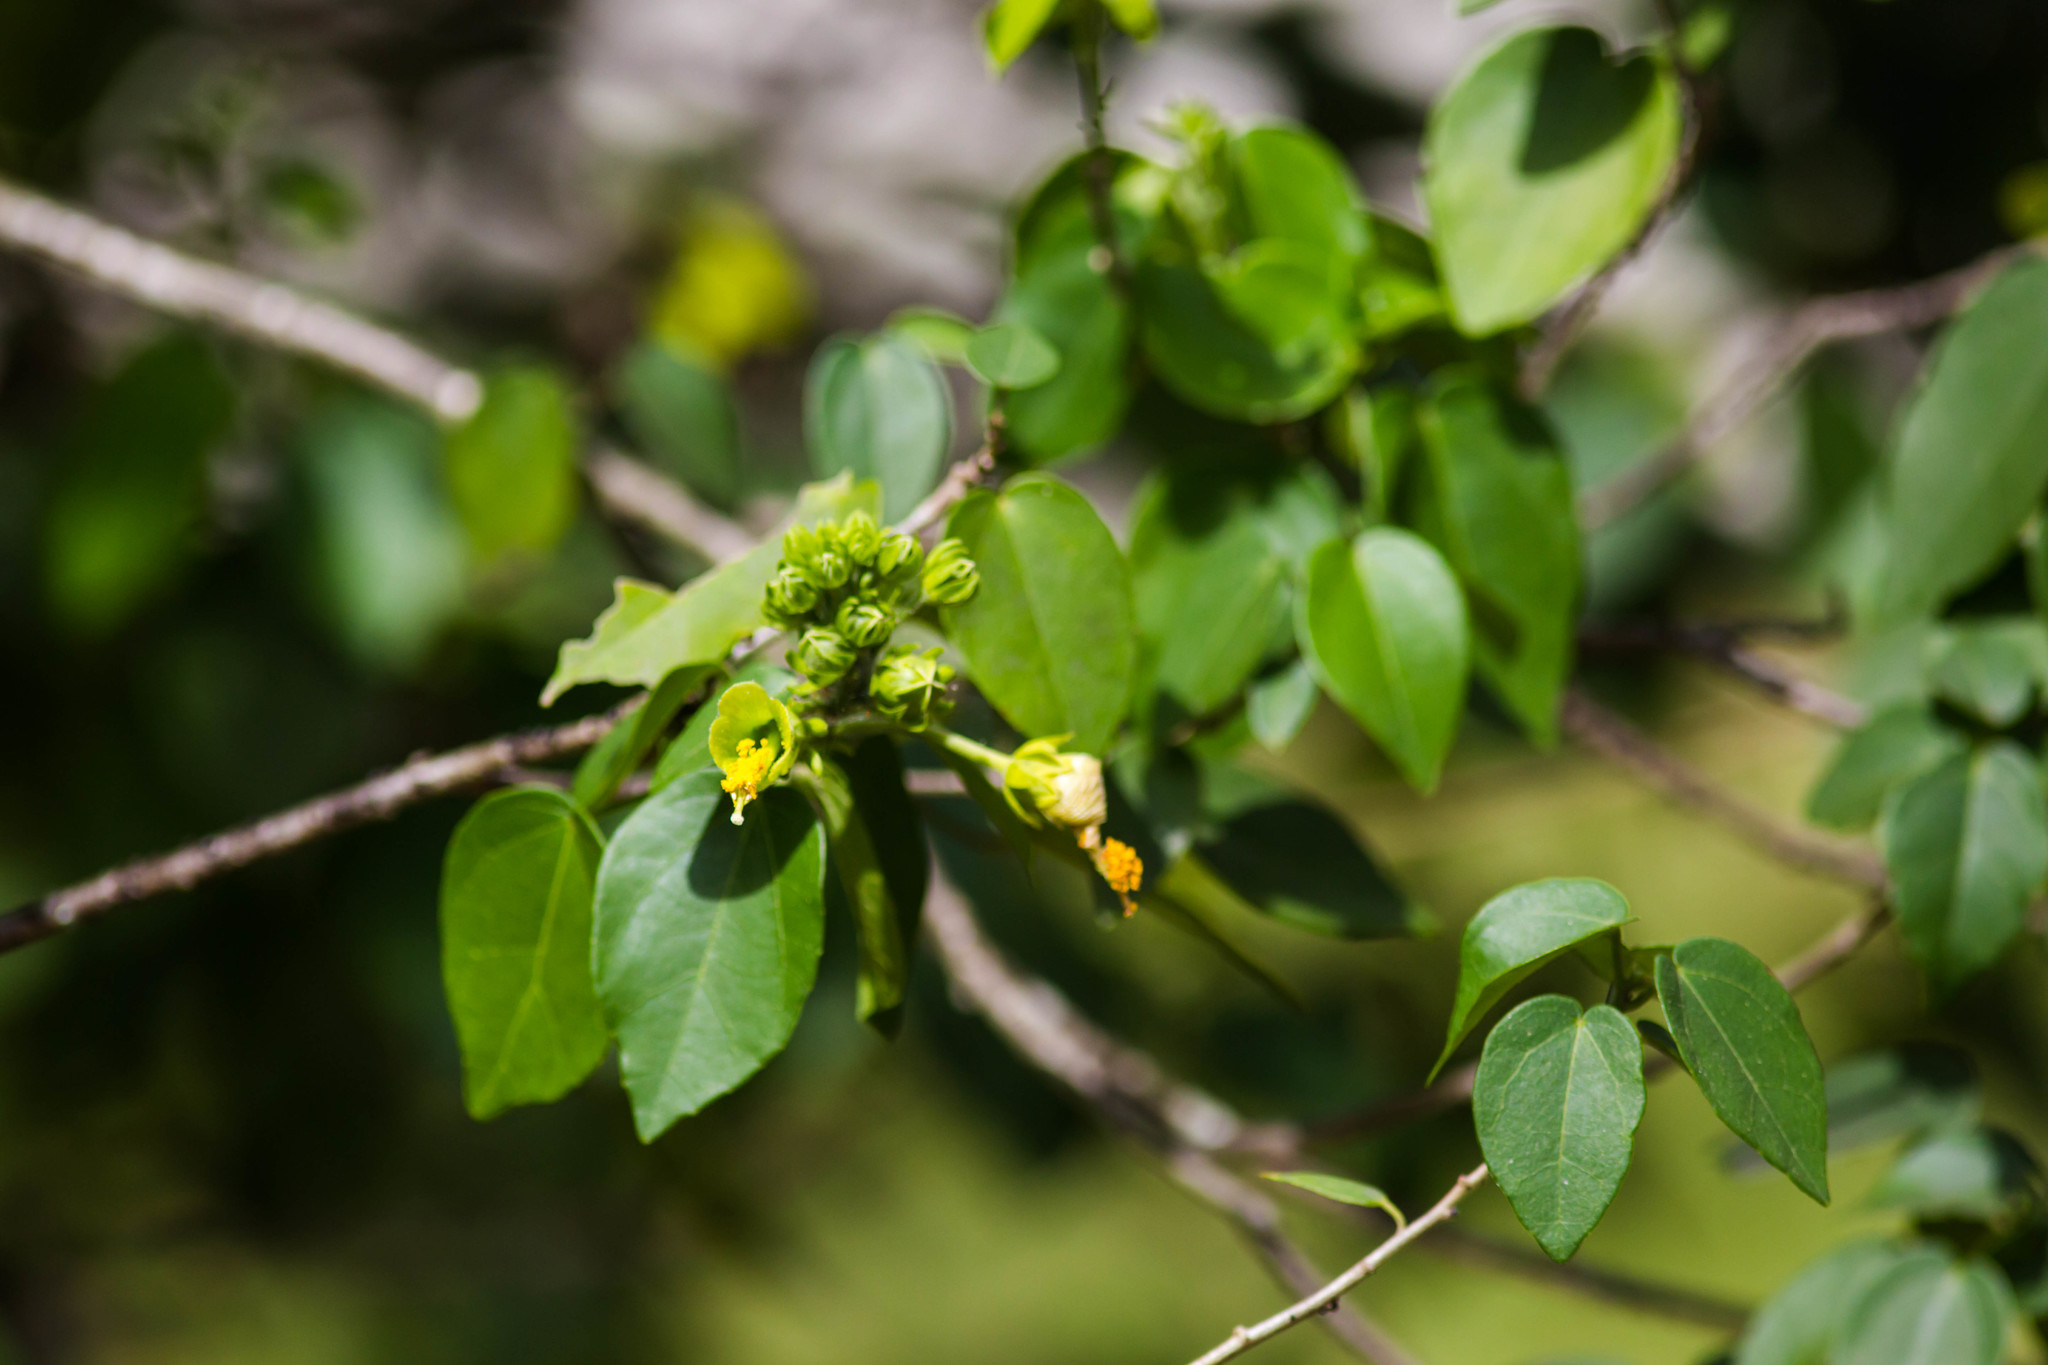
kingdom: Plantae
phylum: Tracheophyta
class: Magnoliopsida
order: Malvales
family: Malvaceae
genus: Pavonia
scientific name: Pavonia paludicola
